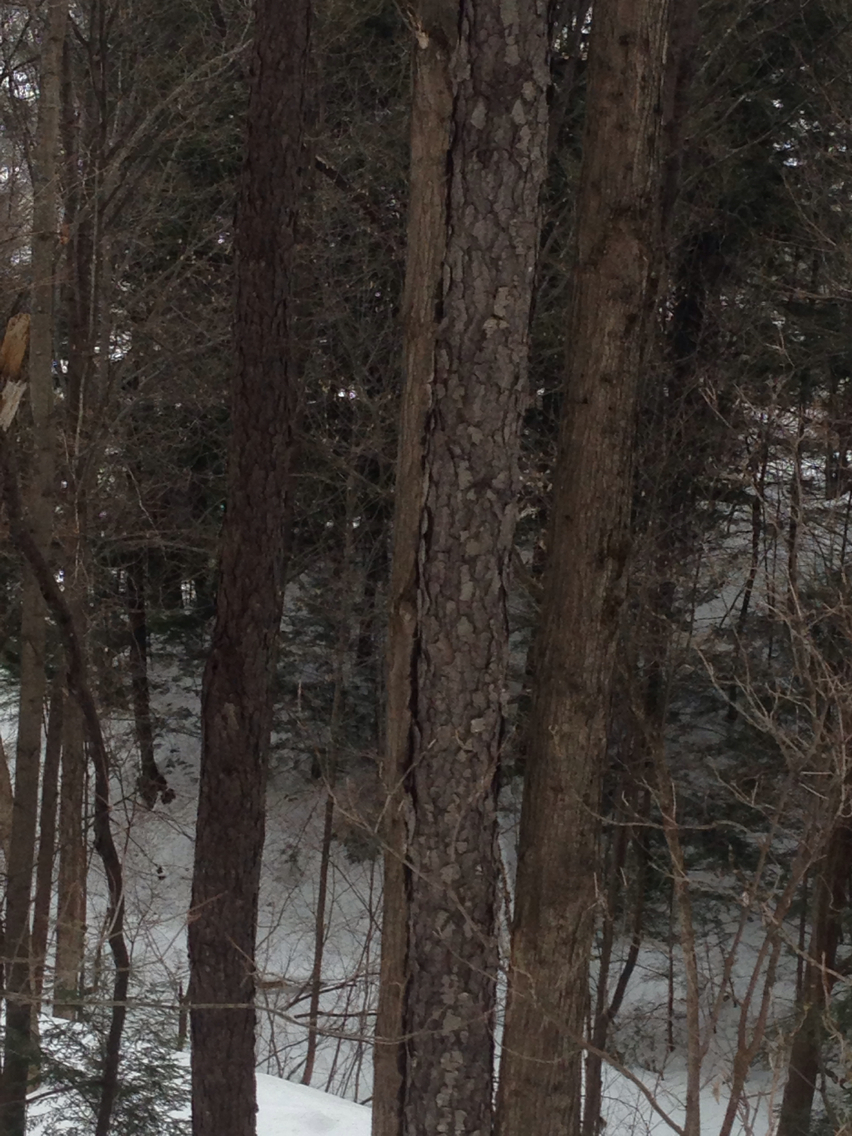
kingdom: Plantae
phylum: Tracheophyta
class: Magnoliopsida
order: Rosales
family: Rosaceae
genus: Prunus
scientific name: Prunus serotina
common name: Black cherry
